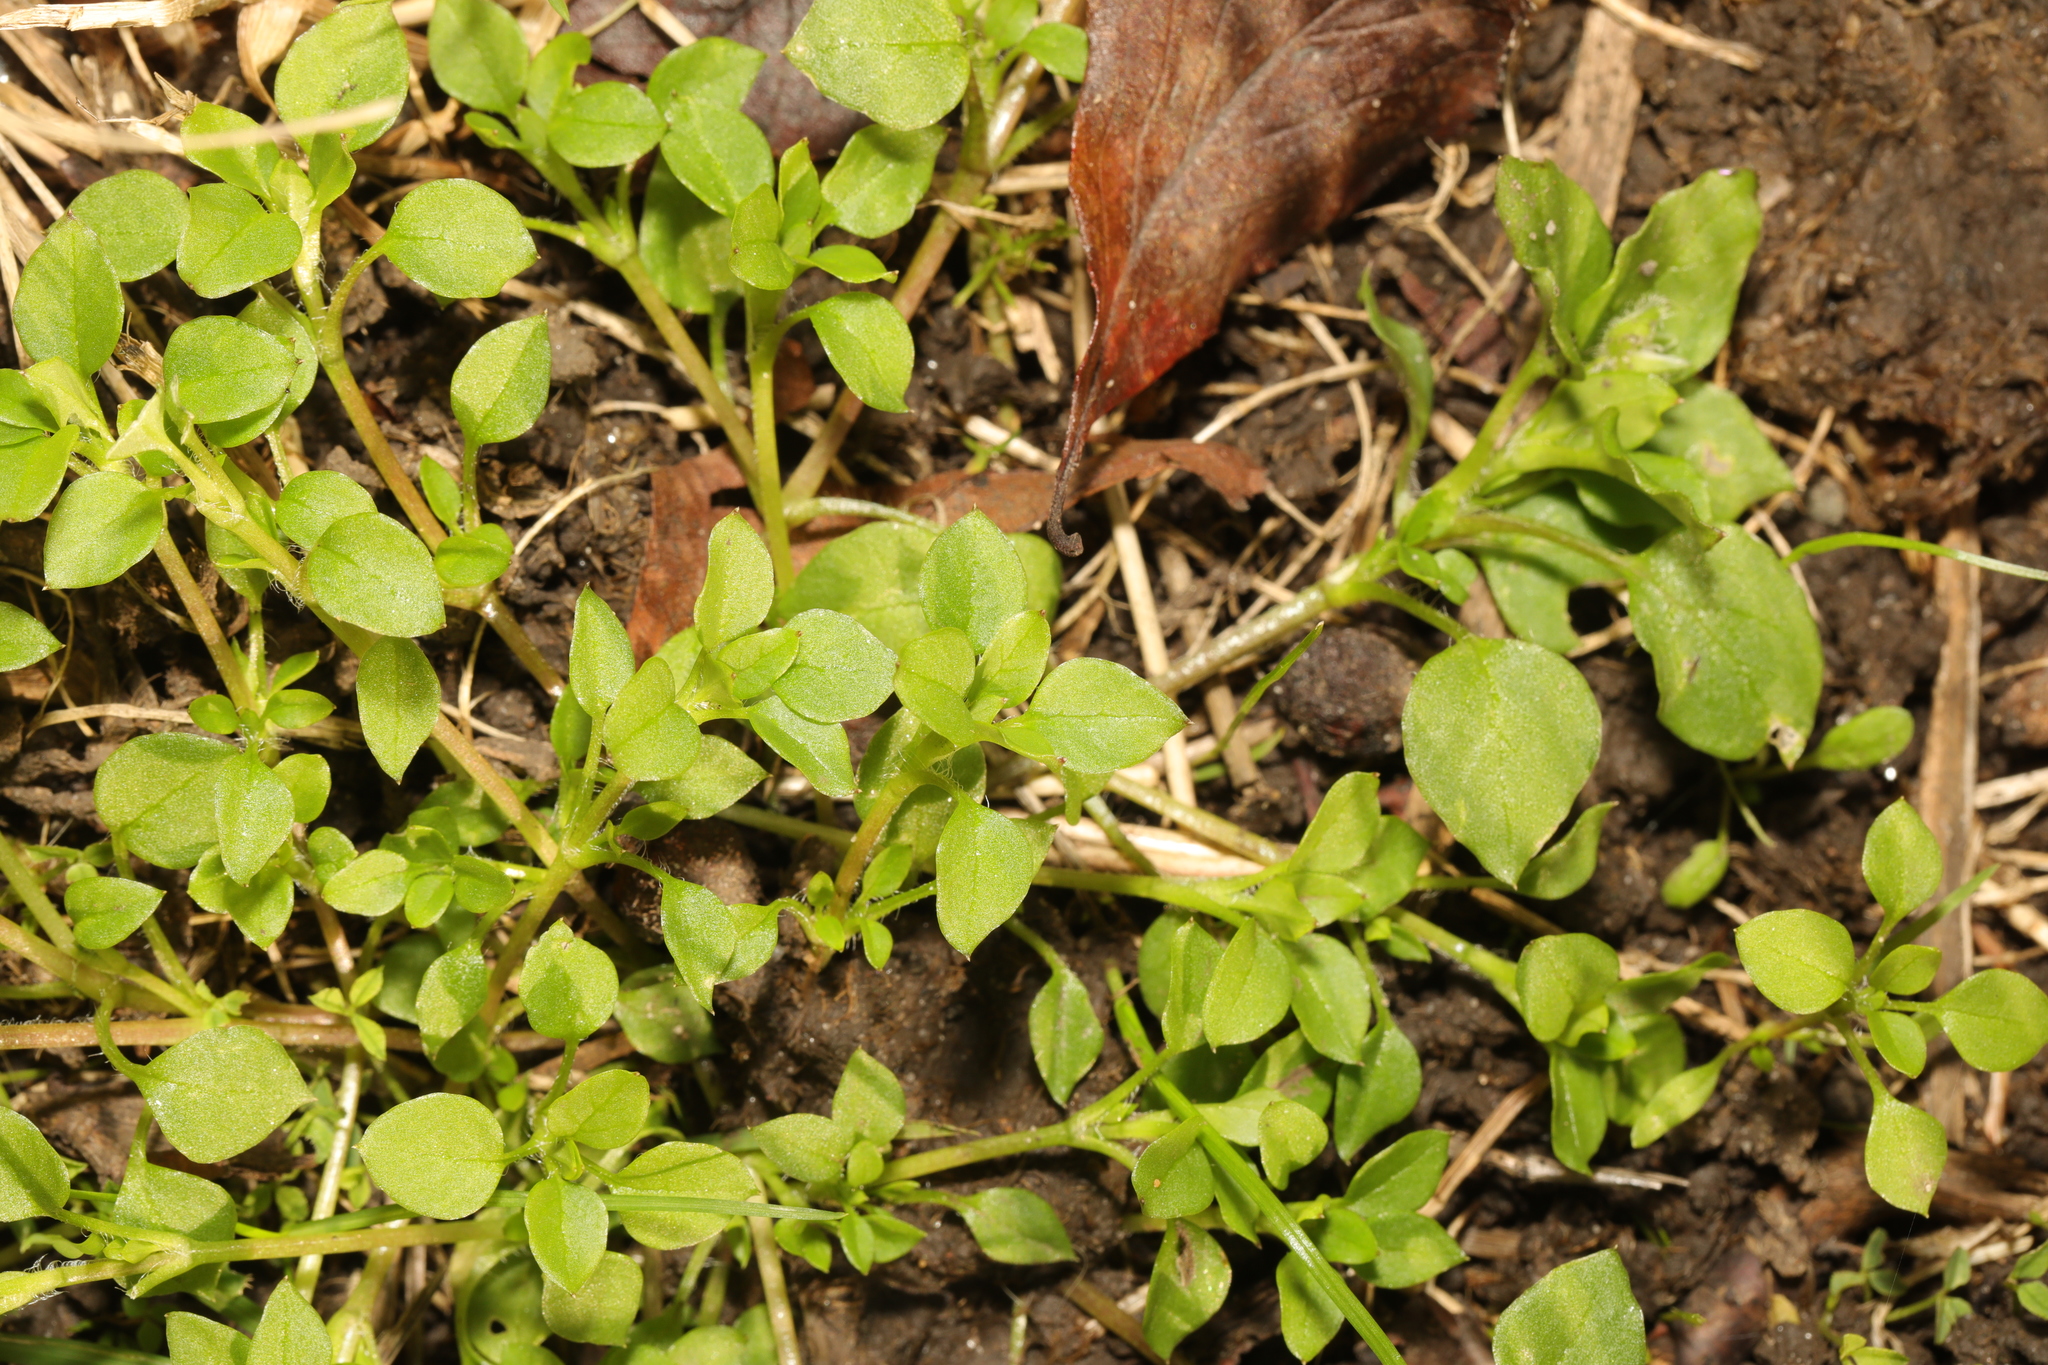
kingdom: Plantae
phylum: Tracheophyta
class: Magnoliopsida
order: Caryophyllales
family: Caryophyllaceae
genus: Stellaria
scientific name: Stellaria media
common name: Common chickweed
